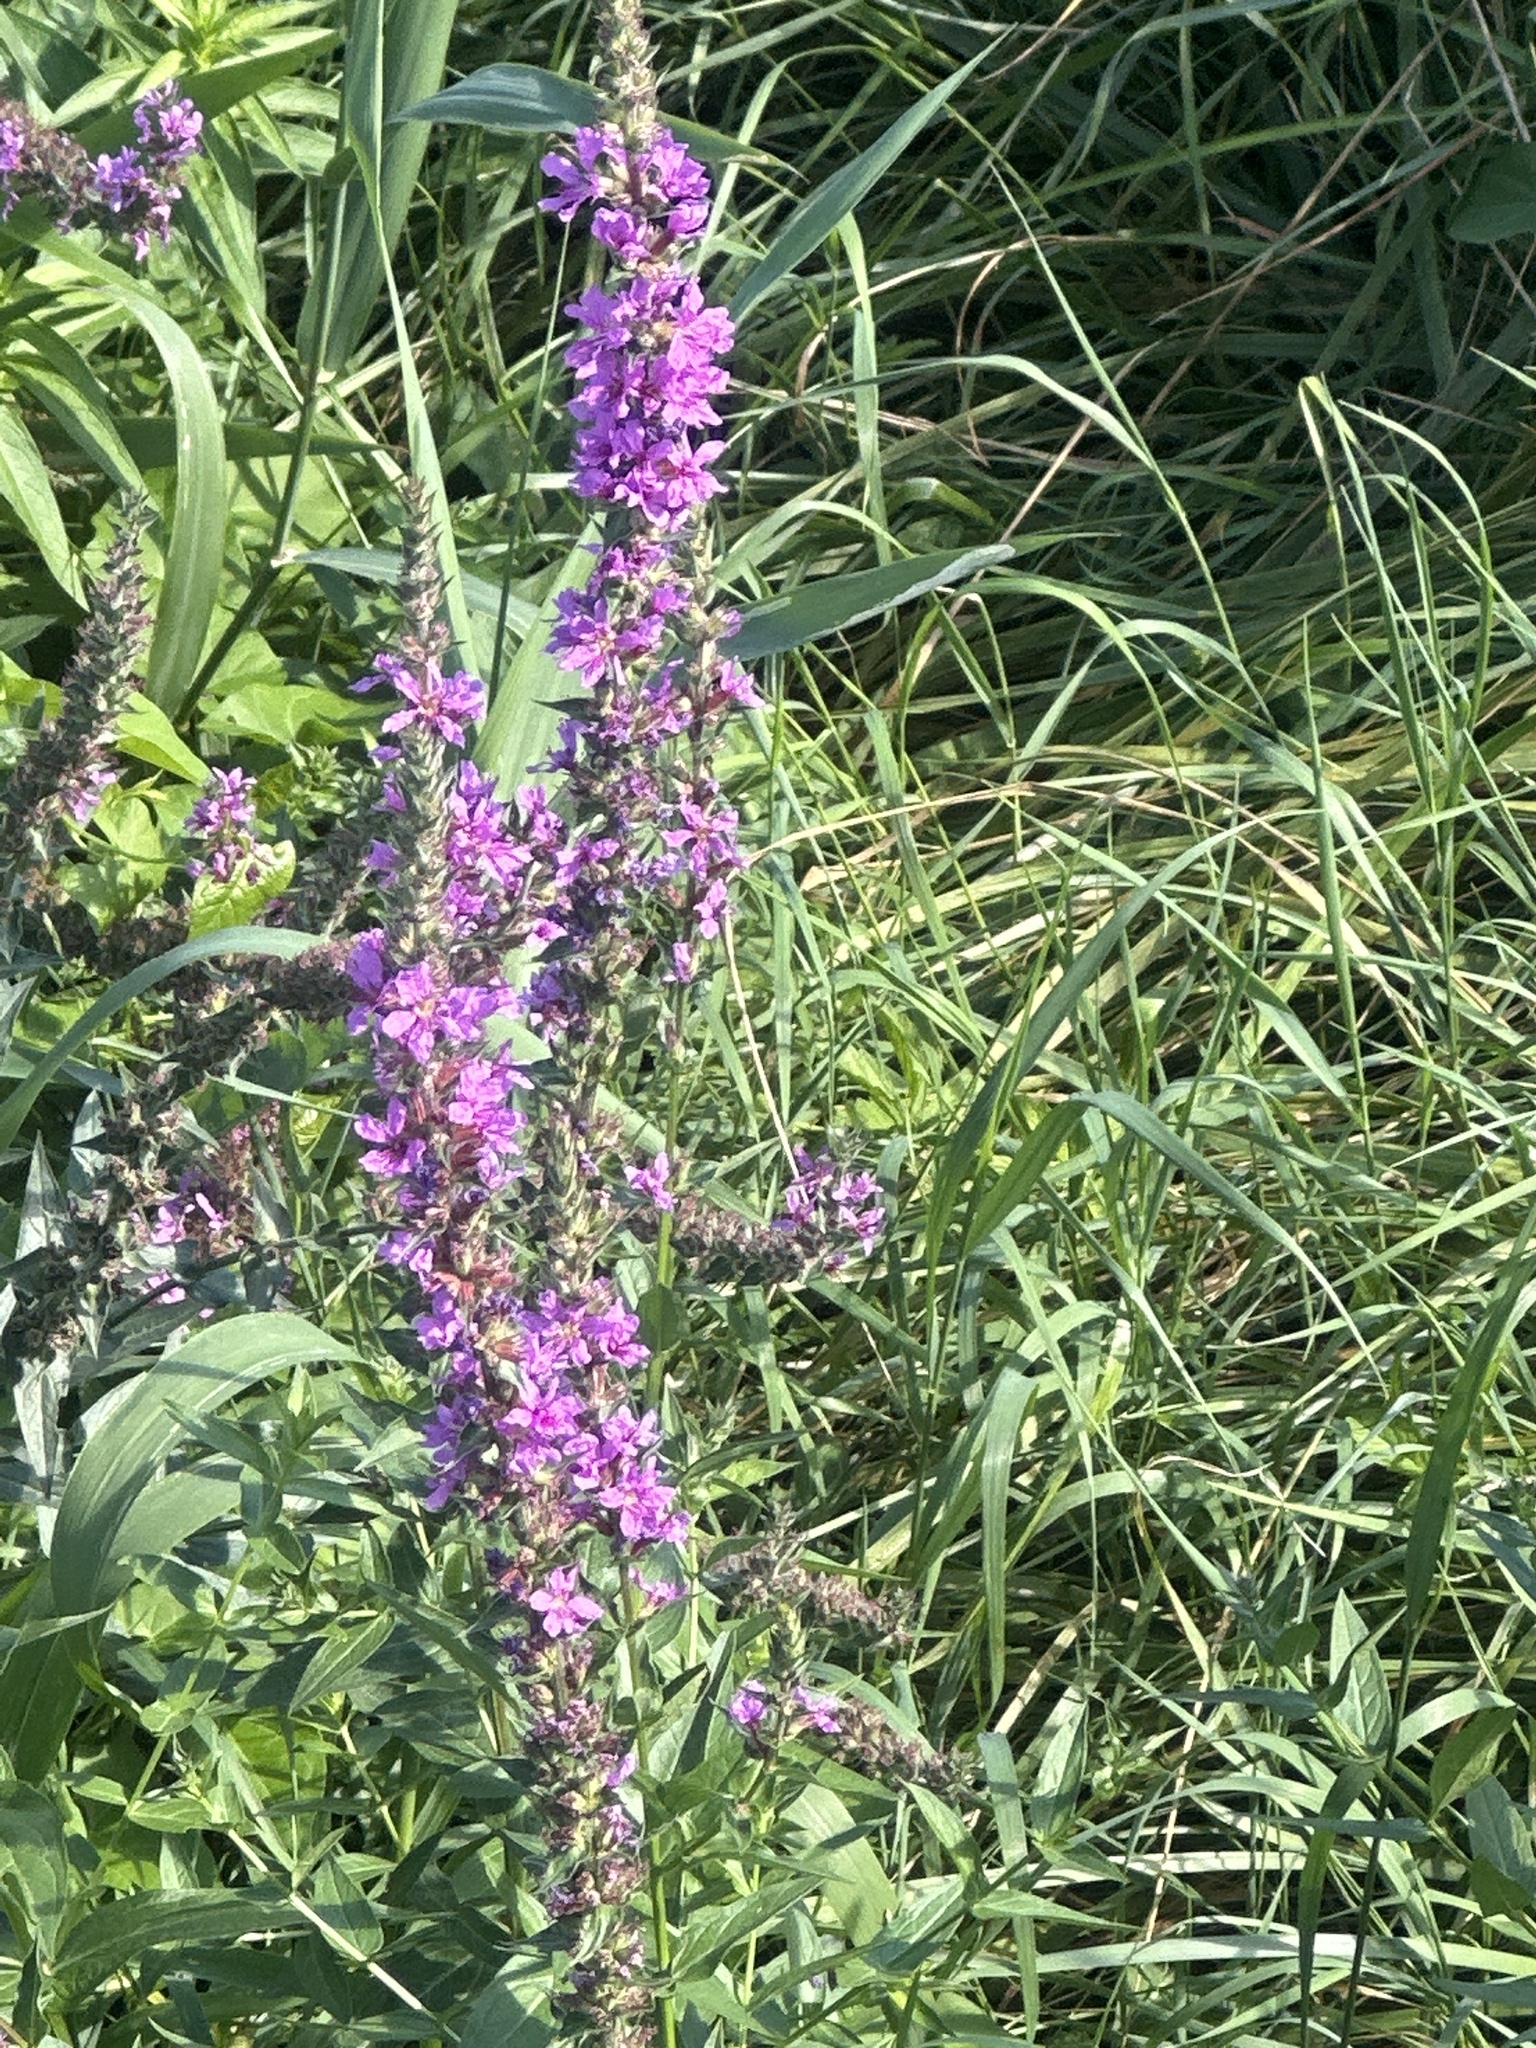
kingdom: Plantae
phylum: Tracheophyta
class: Magnoliopsida
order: Myrtales
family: Lythraceae
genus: Lythrum
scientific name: Lythrum salicaria
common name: Purple loosestrife
